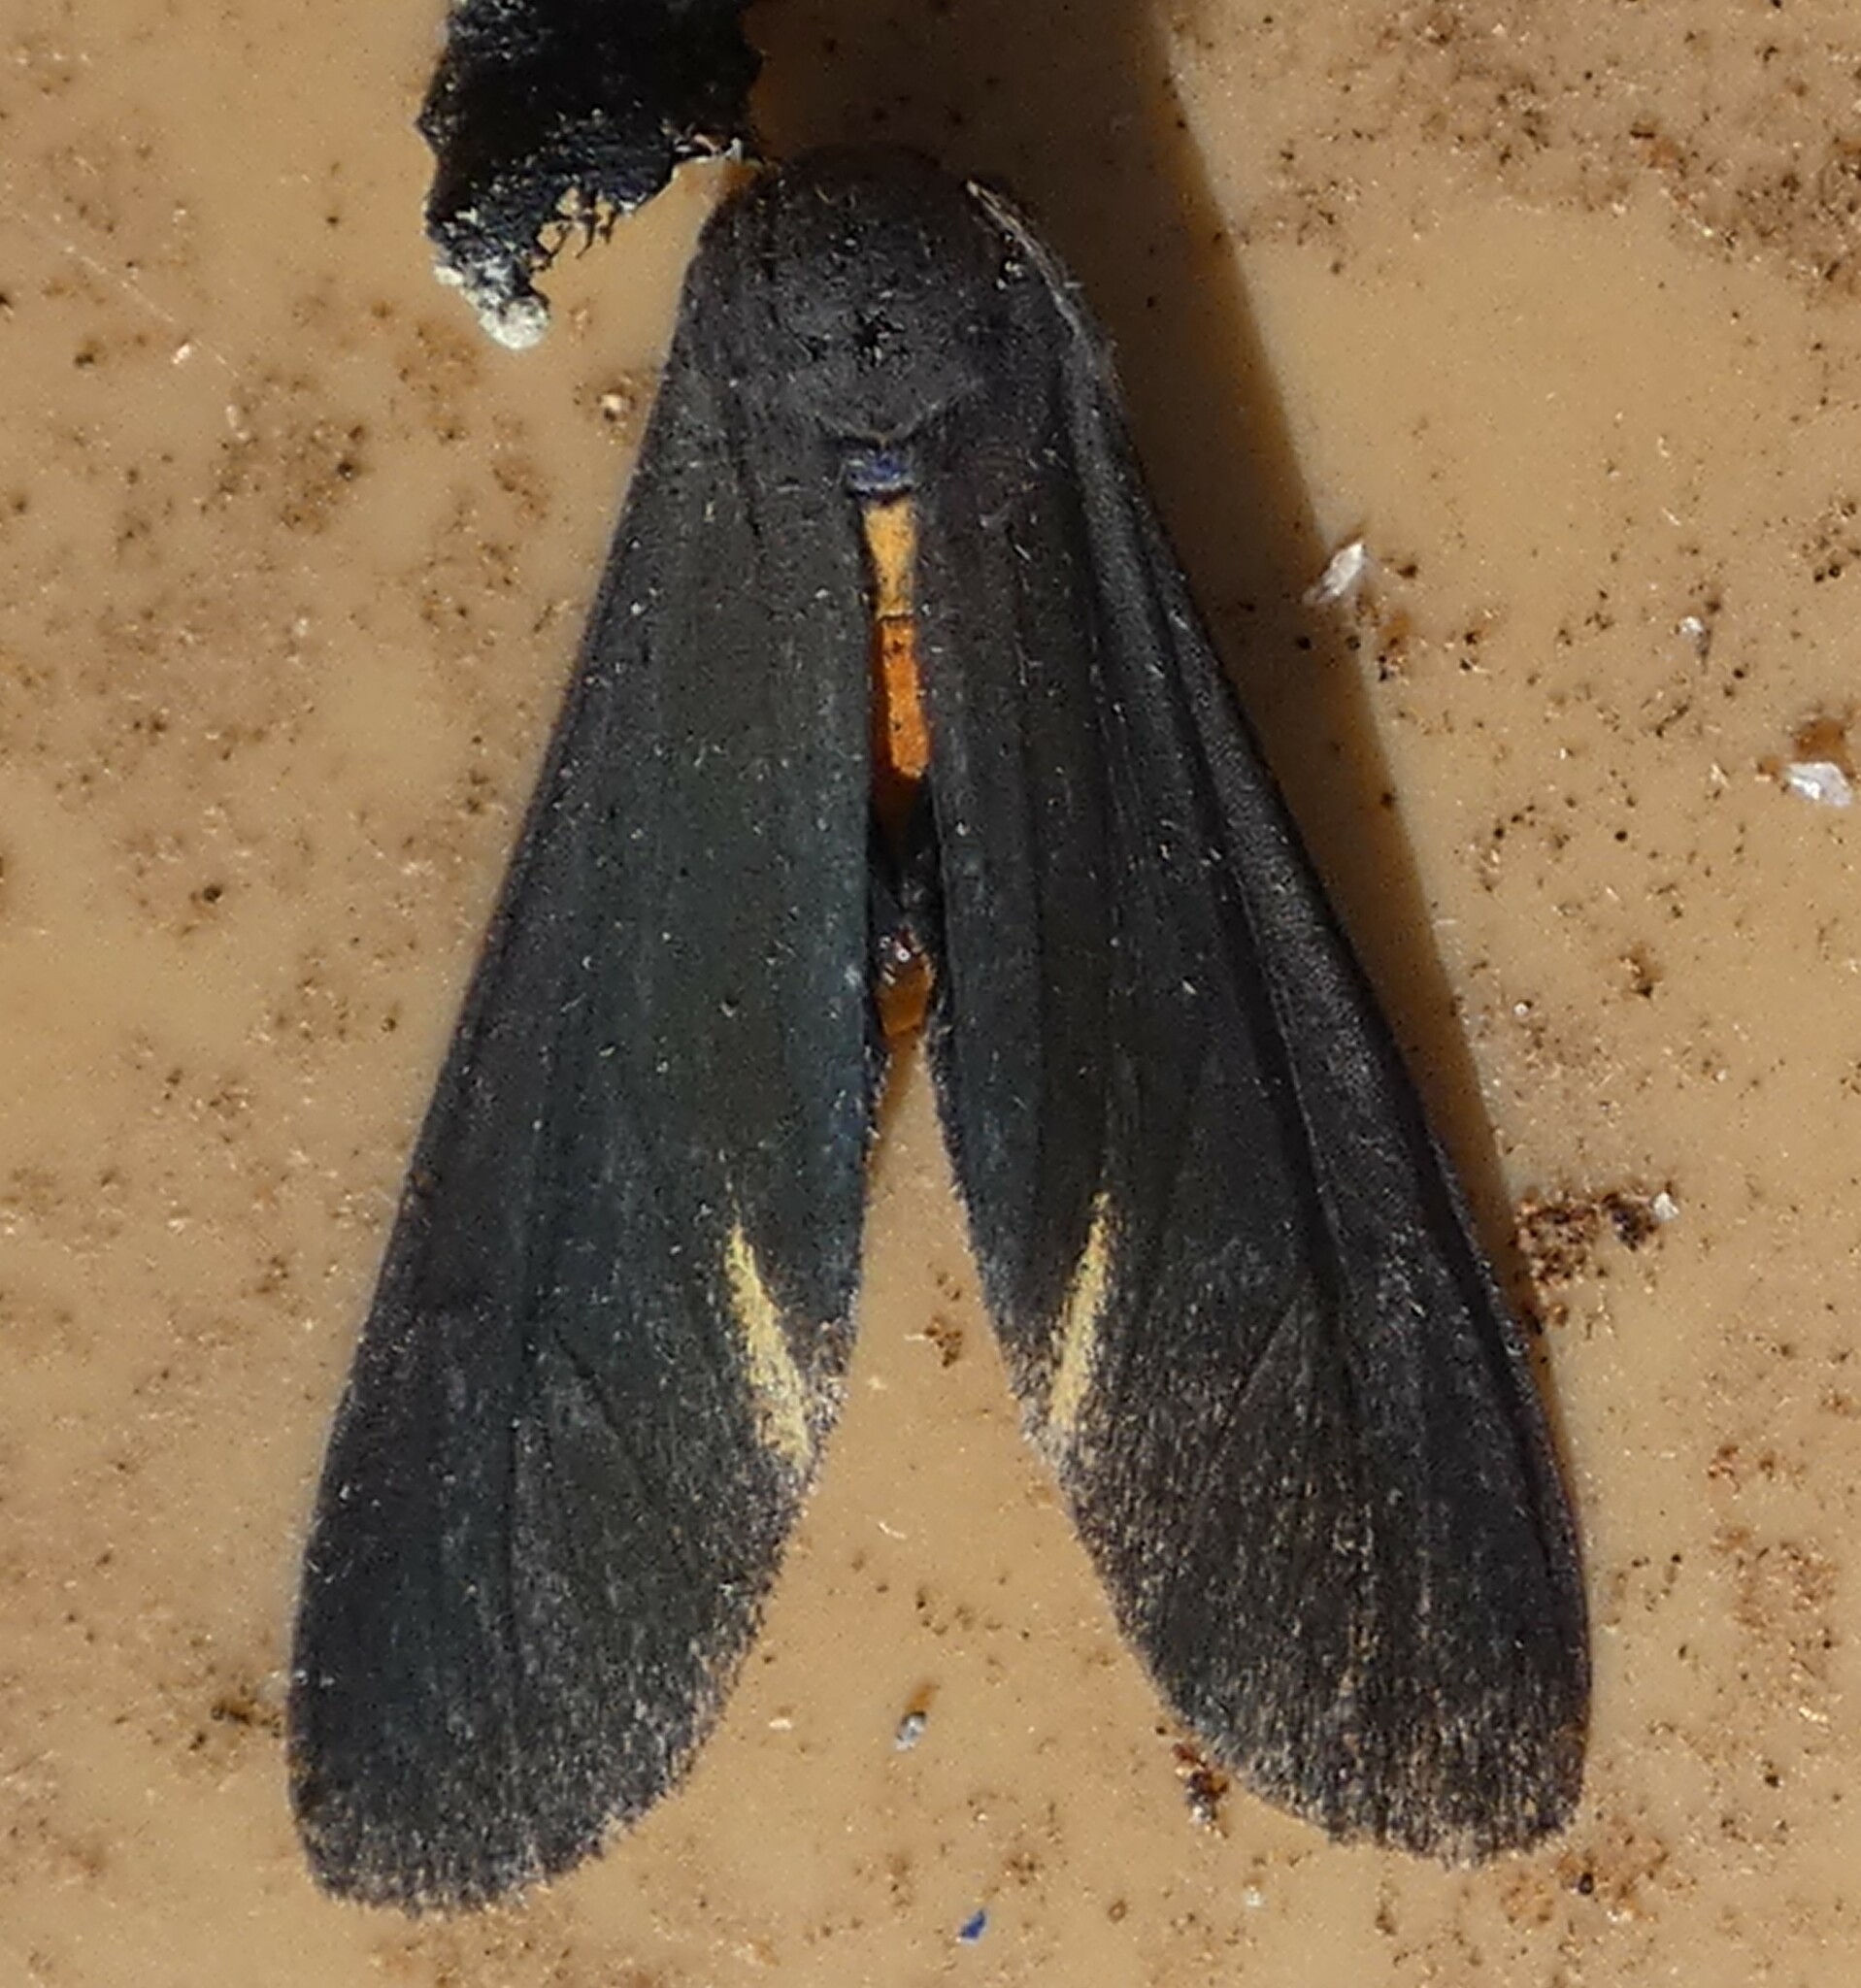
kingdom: Animalia
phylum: Arthropoda
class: Insecta
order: Lepidoptera
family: Erebidae
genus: Dahana
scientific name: Dahana atripennis
